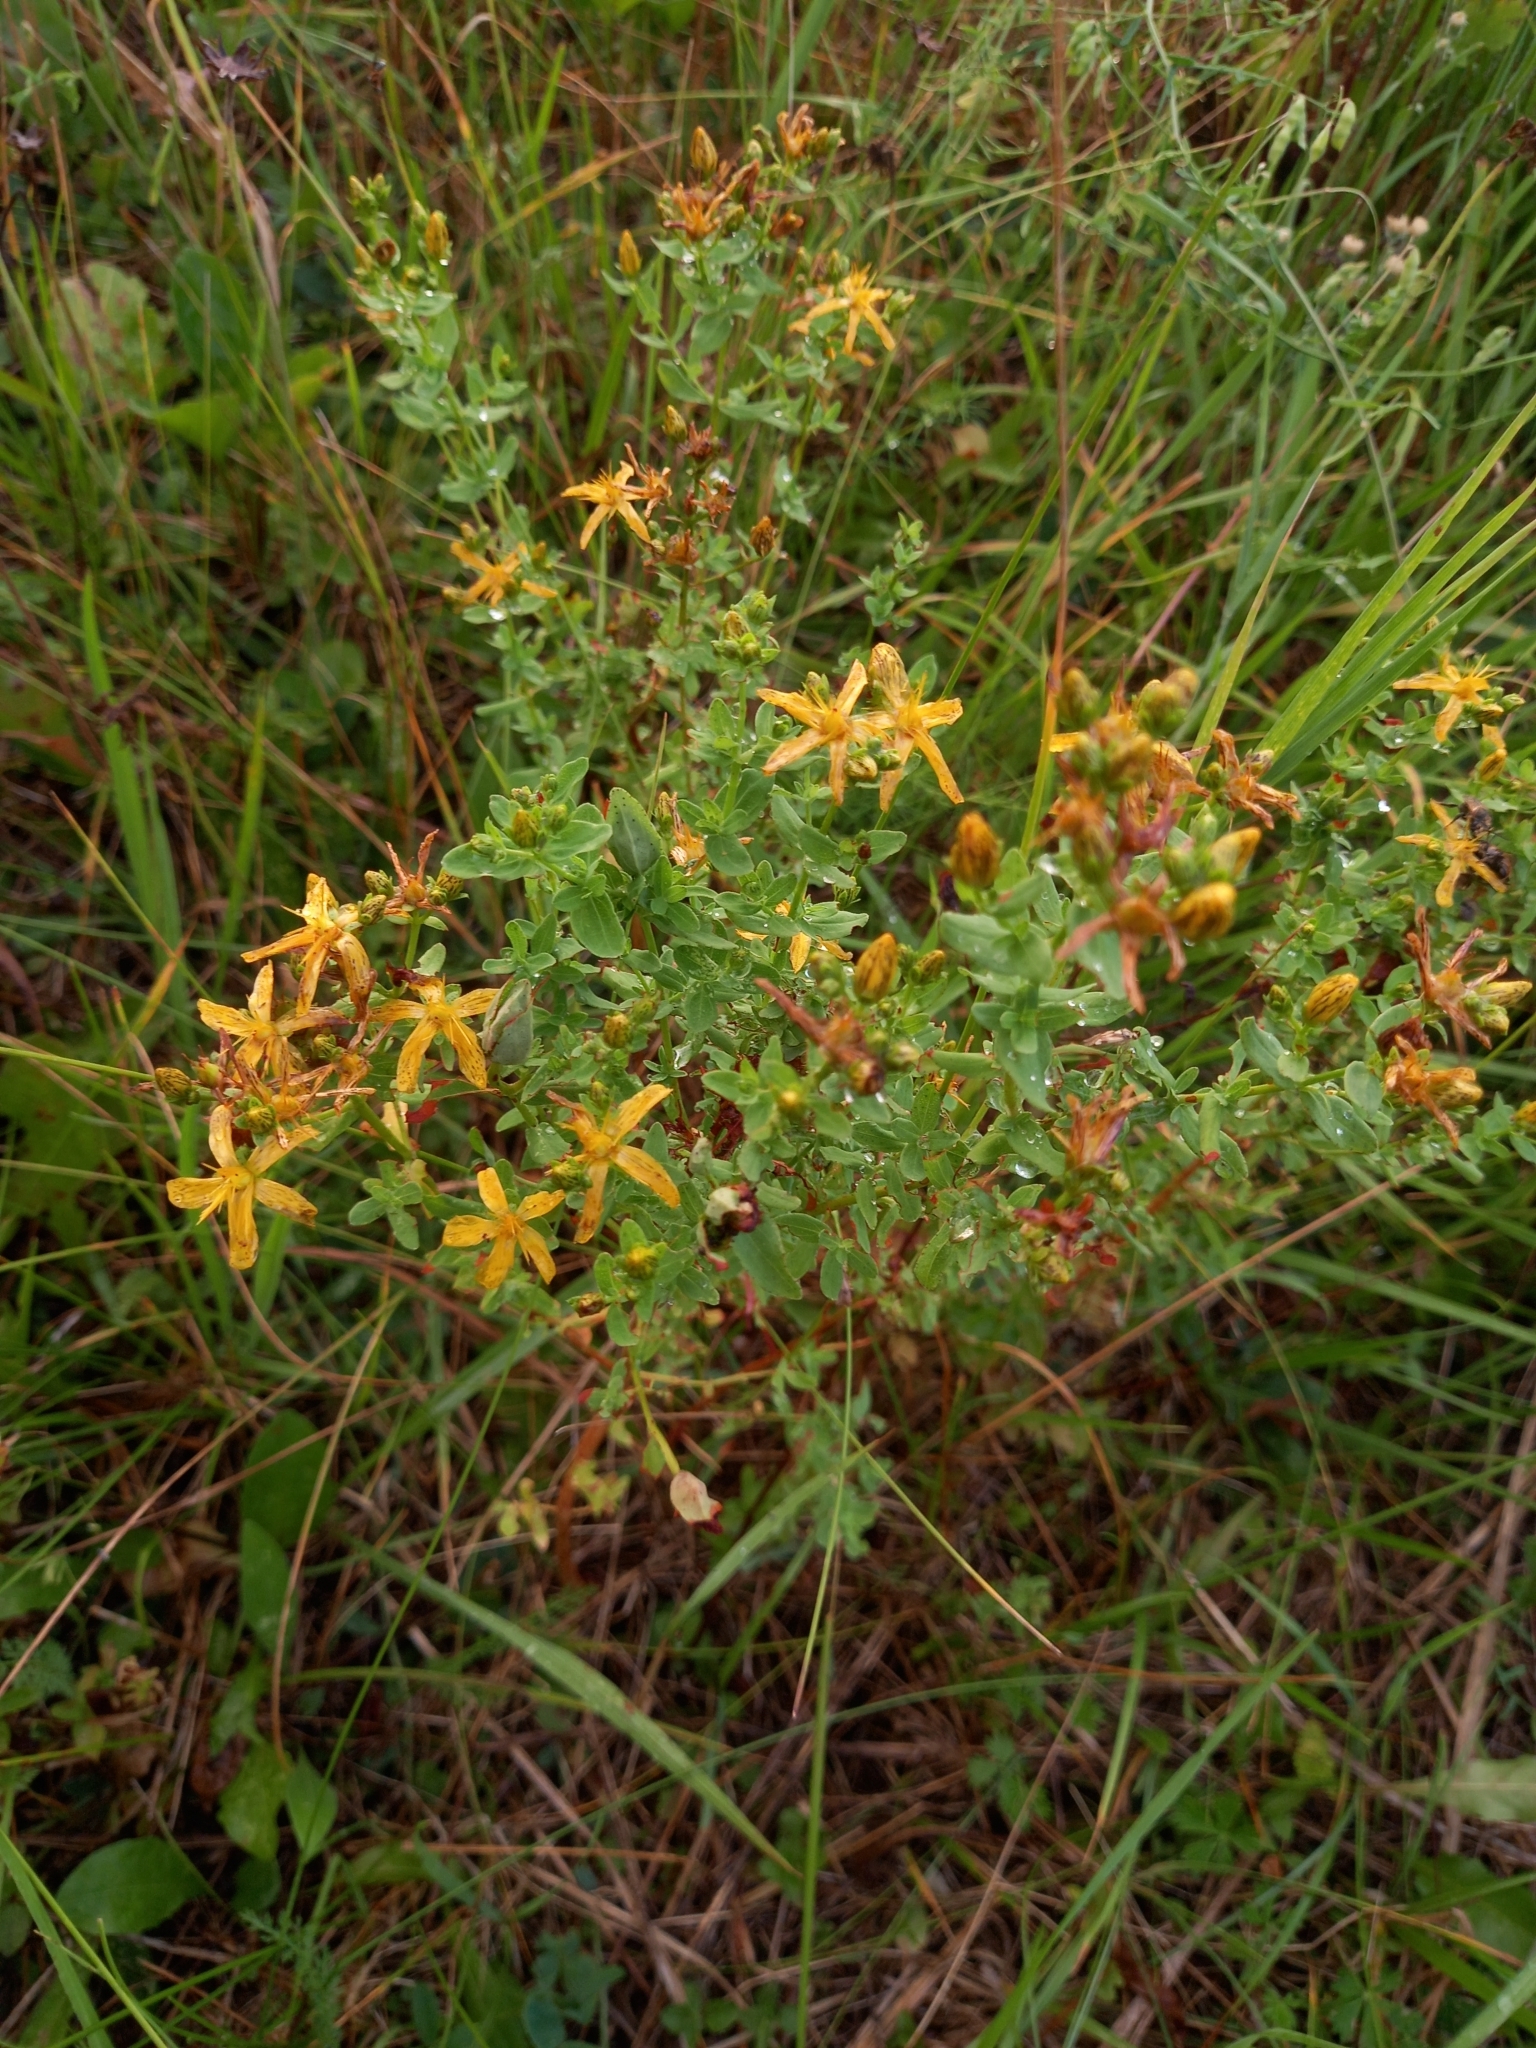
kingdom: Plantae
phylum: Tracheophyta
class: Magnoliopsida
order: Malpighiales
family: Hypericaceae
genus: Hypericum
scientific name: Hypericum perforatum
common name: Common st. johnswort
